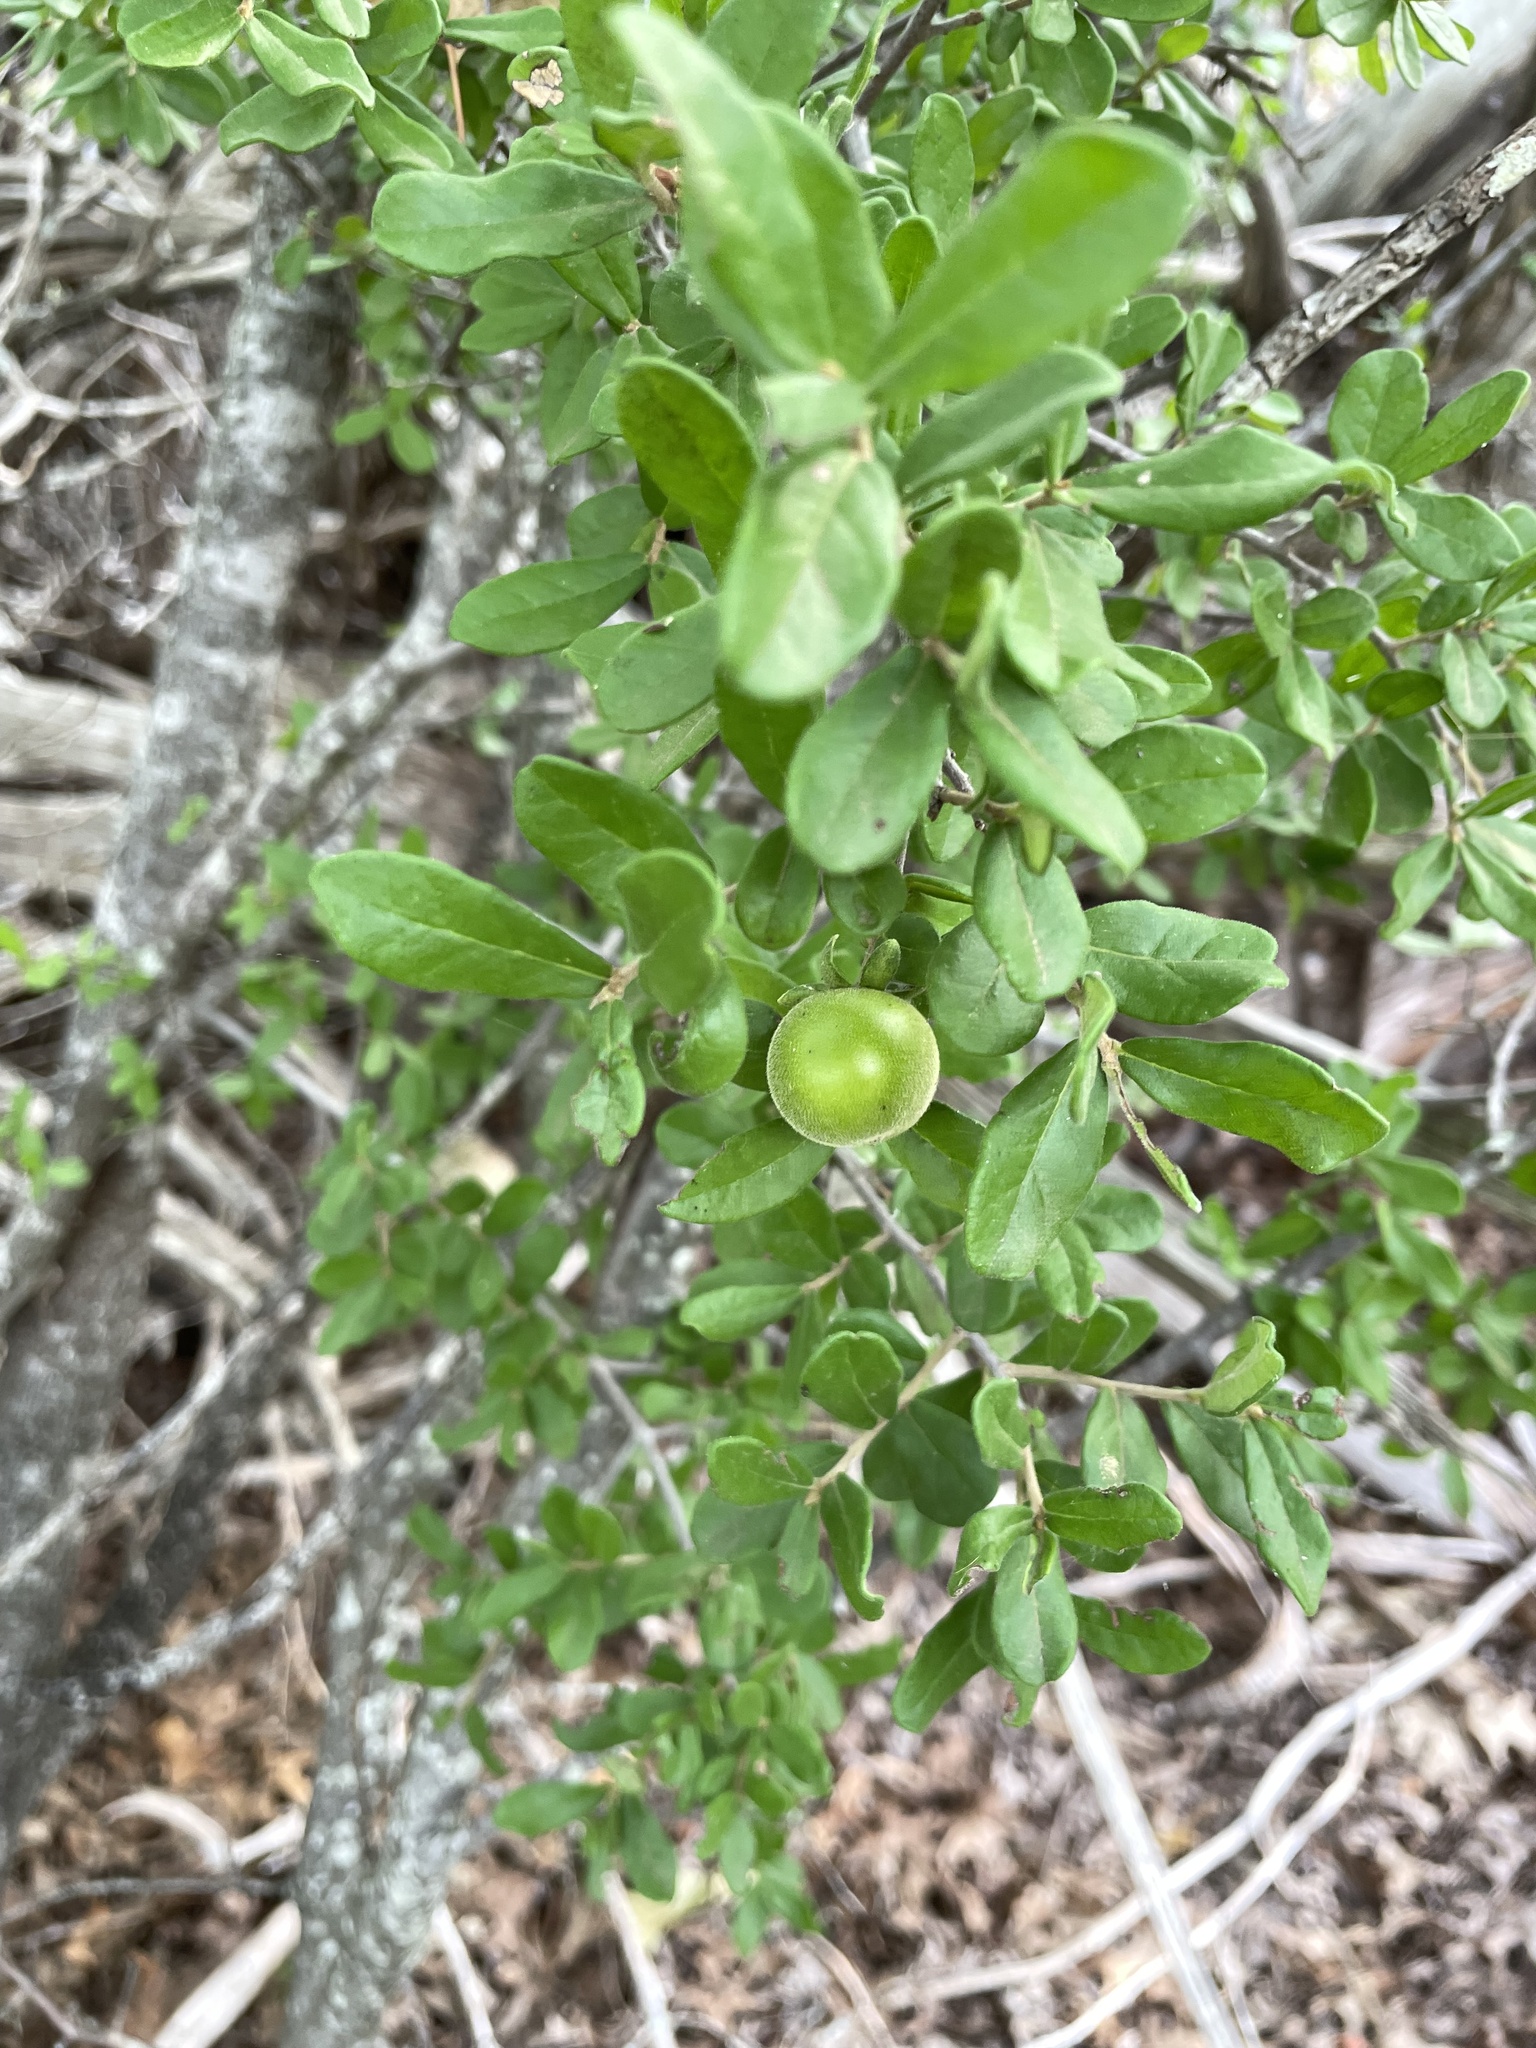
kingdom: Plantae
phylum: Tracheophyta
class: Magnoliopsida
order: Ericales
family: Ebenaceae
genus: Diospyros
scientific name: Diospyros texana
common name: Texas persimmon
